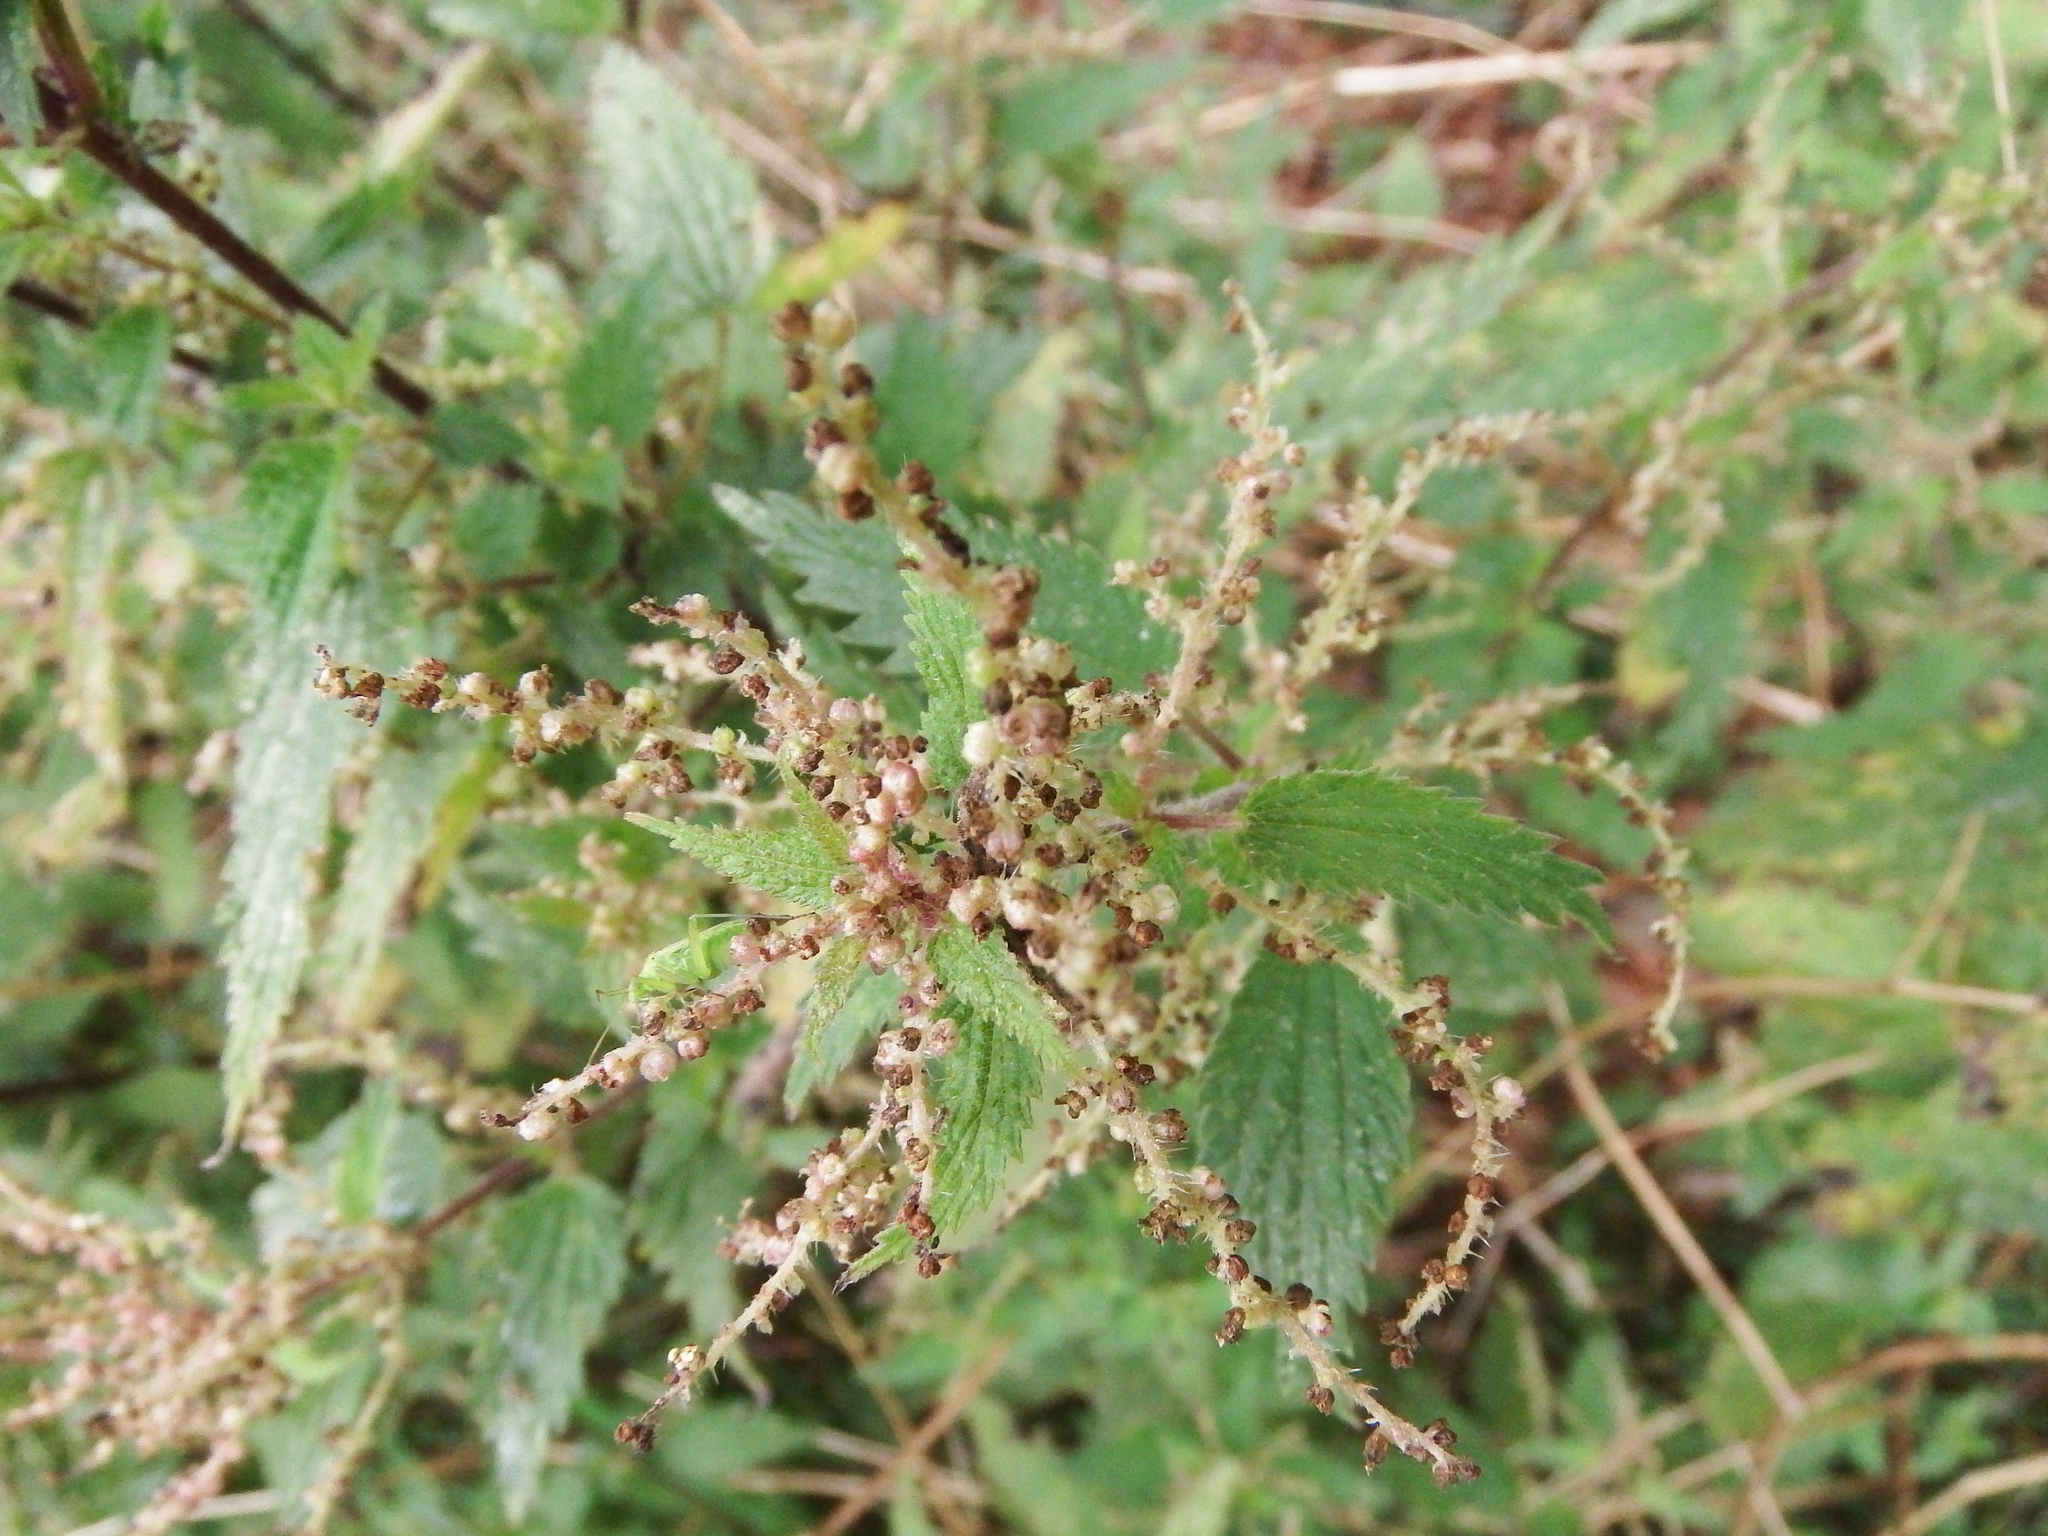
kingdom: Plantae
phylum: Tracheophyta
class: Magnoliopsida
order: Rosales
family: Urticaceae
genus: Urtica
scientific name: Urtica dioica
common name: Common nettle
